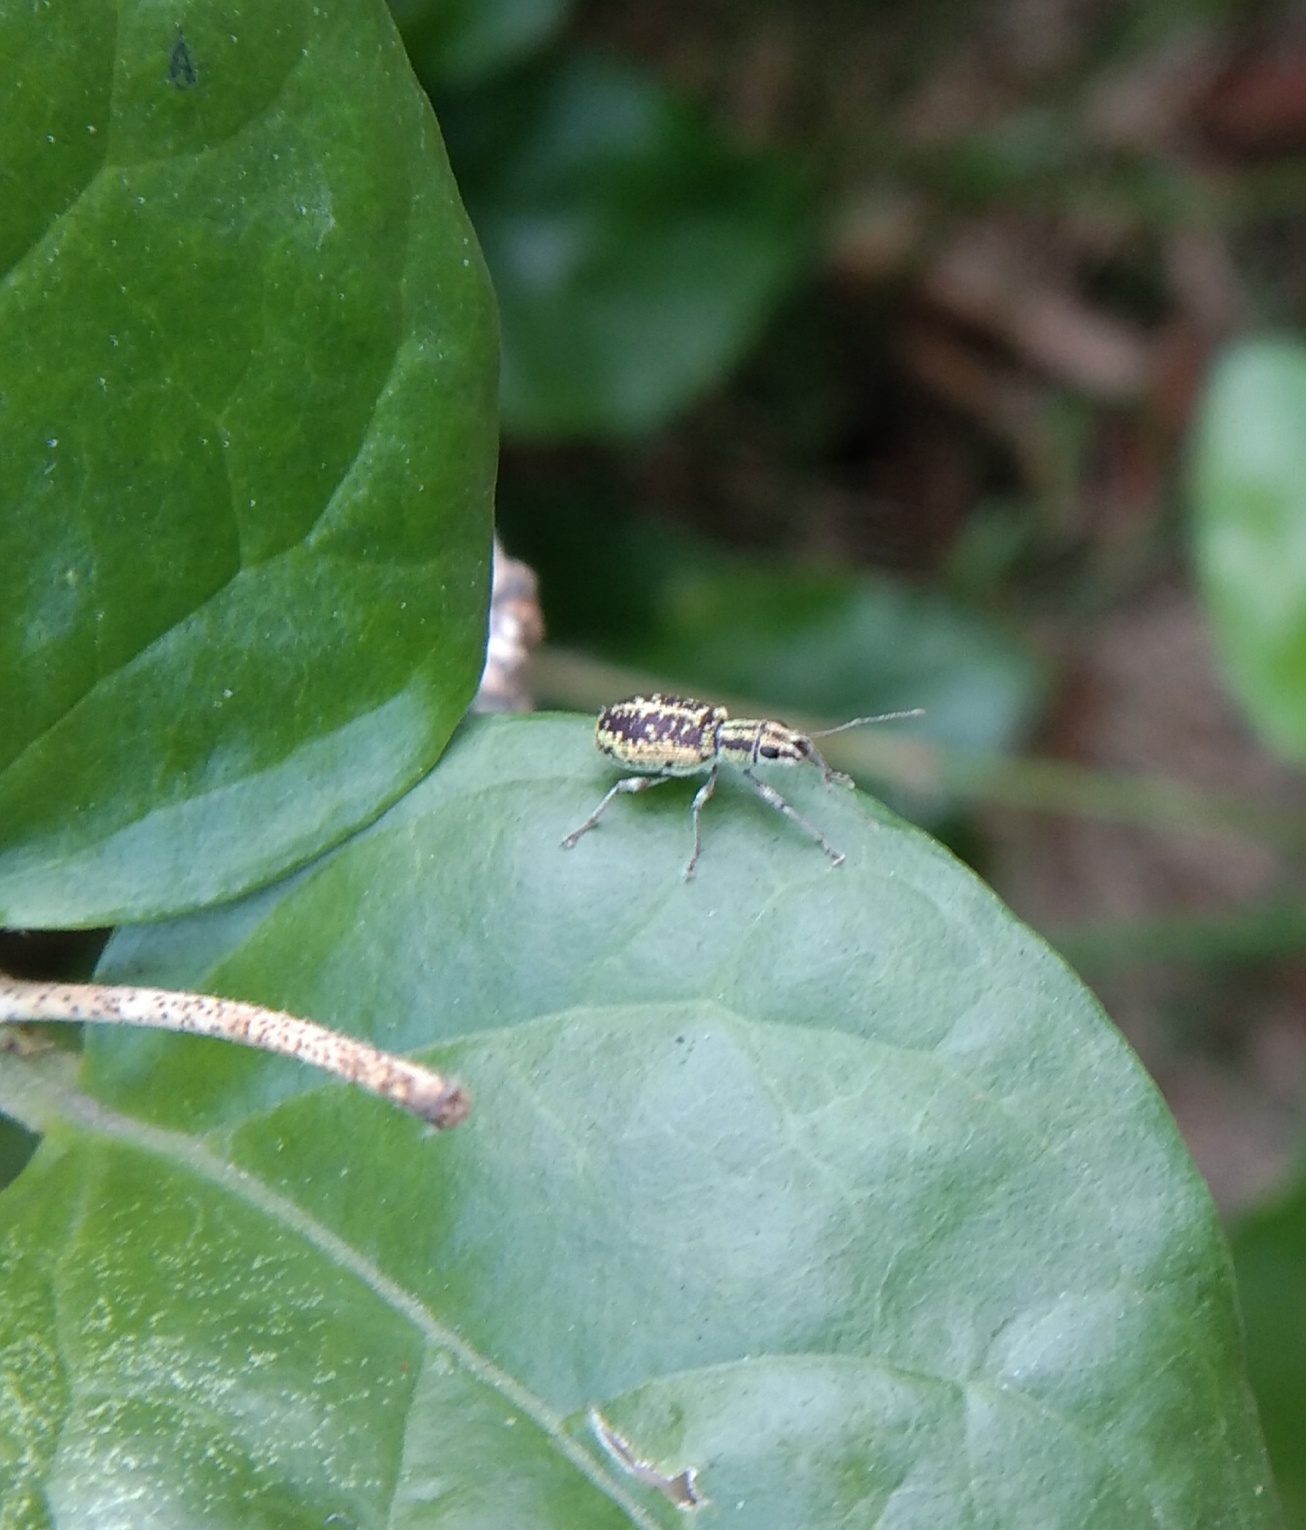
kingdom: Animalia
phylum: Arthropoda
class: Insecta
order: Coleoptera
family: Curculionidae
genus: Myllocerus
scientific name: Myllocerus dorsatus
